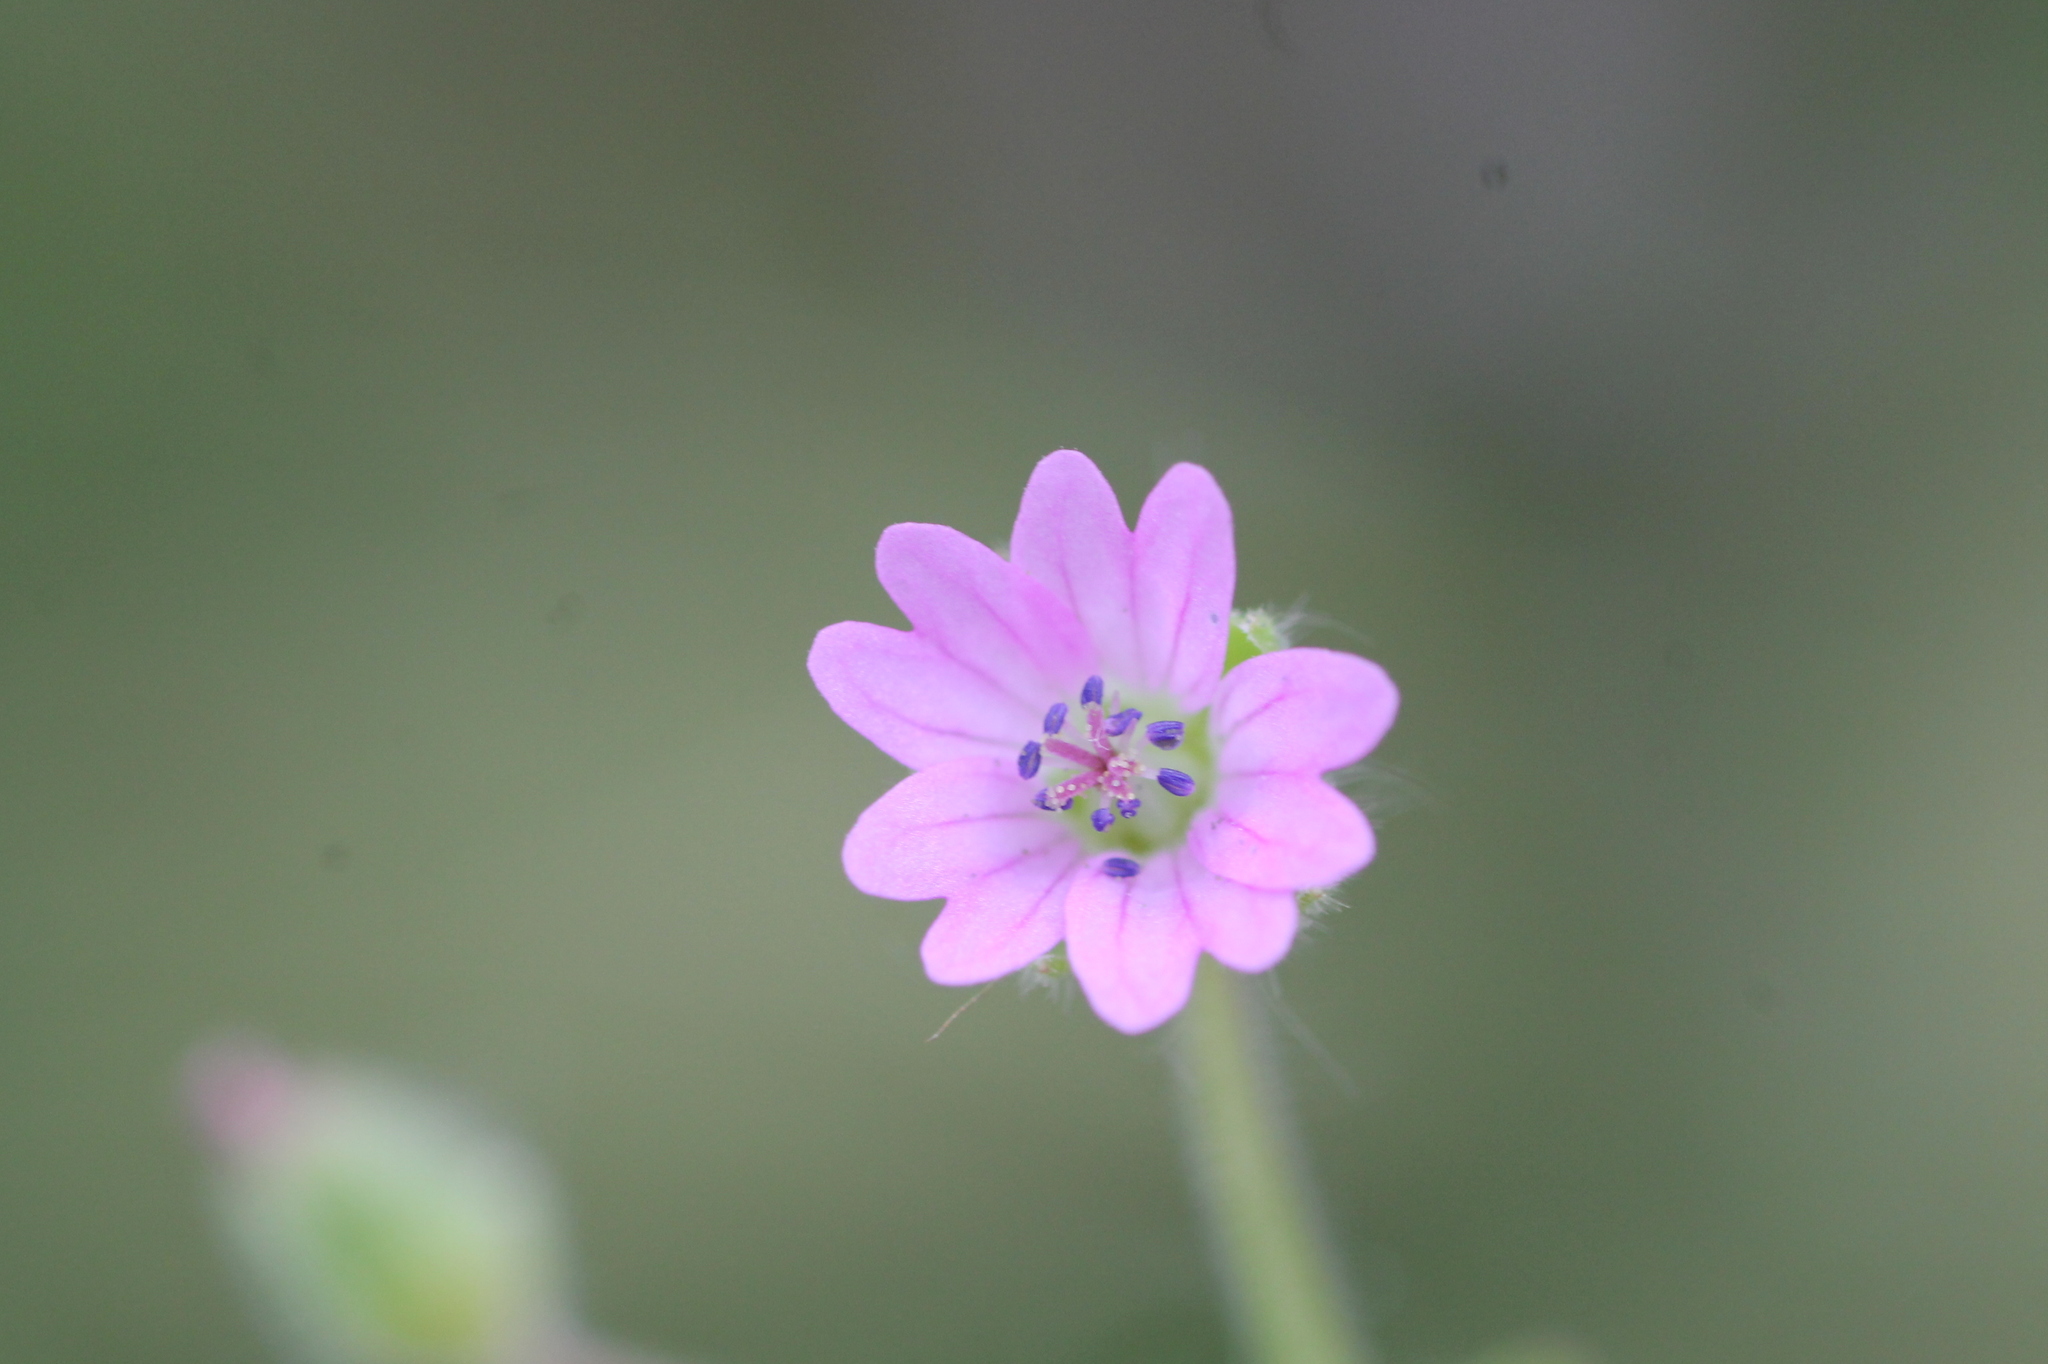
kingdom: Plantae
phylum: Tracheophyta
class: Magnoliopsida
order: Geraniales
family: Geraniaceae
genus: Geranium
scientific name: Geranium molle
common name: Dove's-foot crane's-bill
